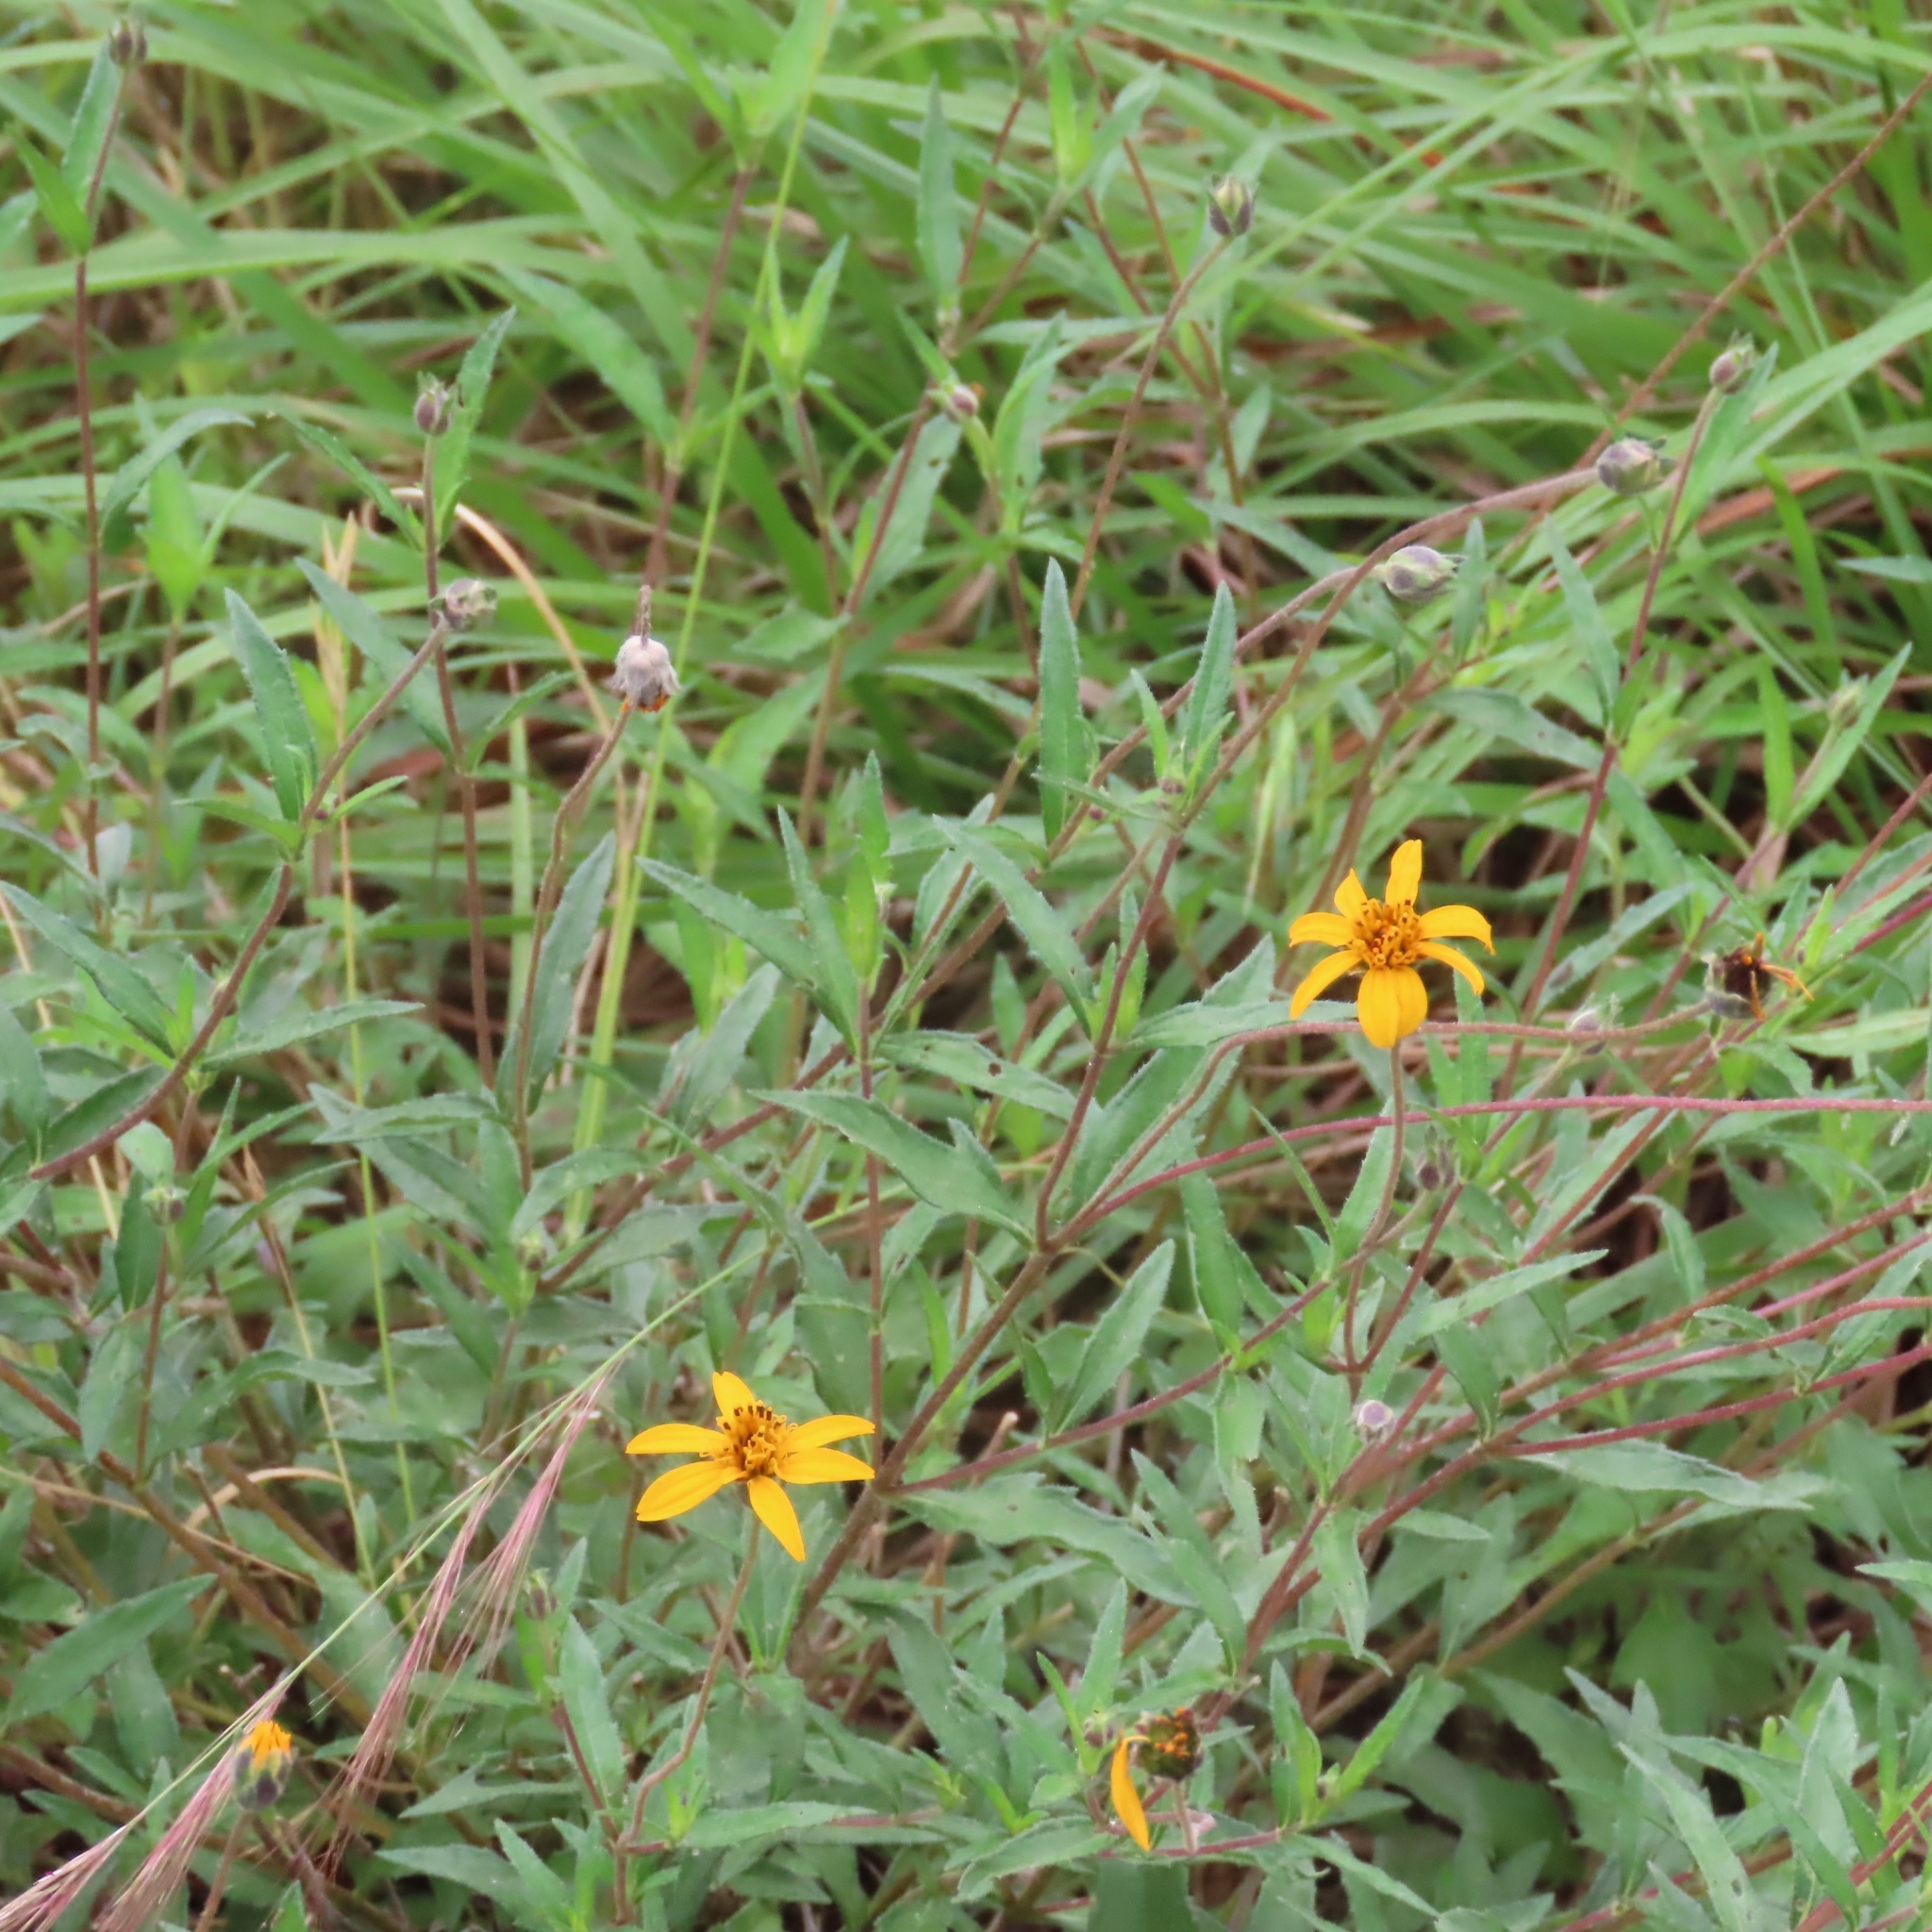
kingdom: Plantae
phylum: Tracheophyta
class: Magnoliopsida
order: Asterales
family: Asteraceae
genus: Wedelia
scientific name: Wedelia acapulcensis
